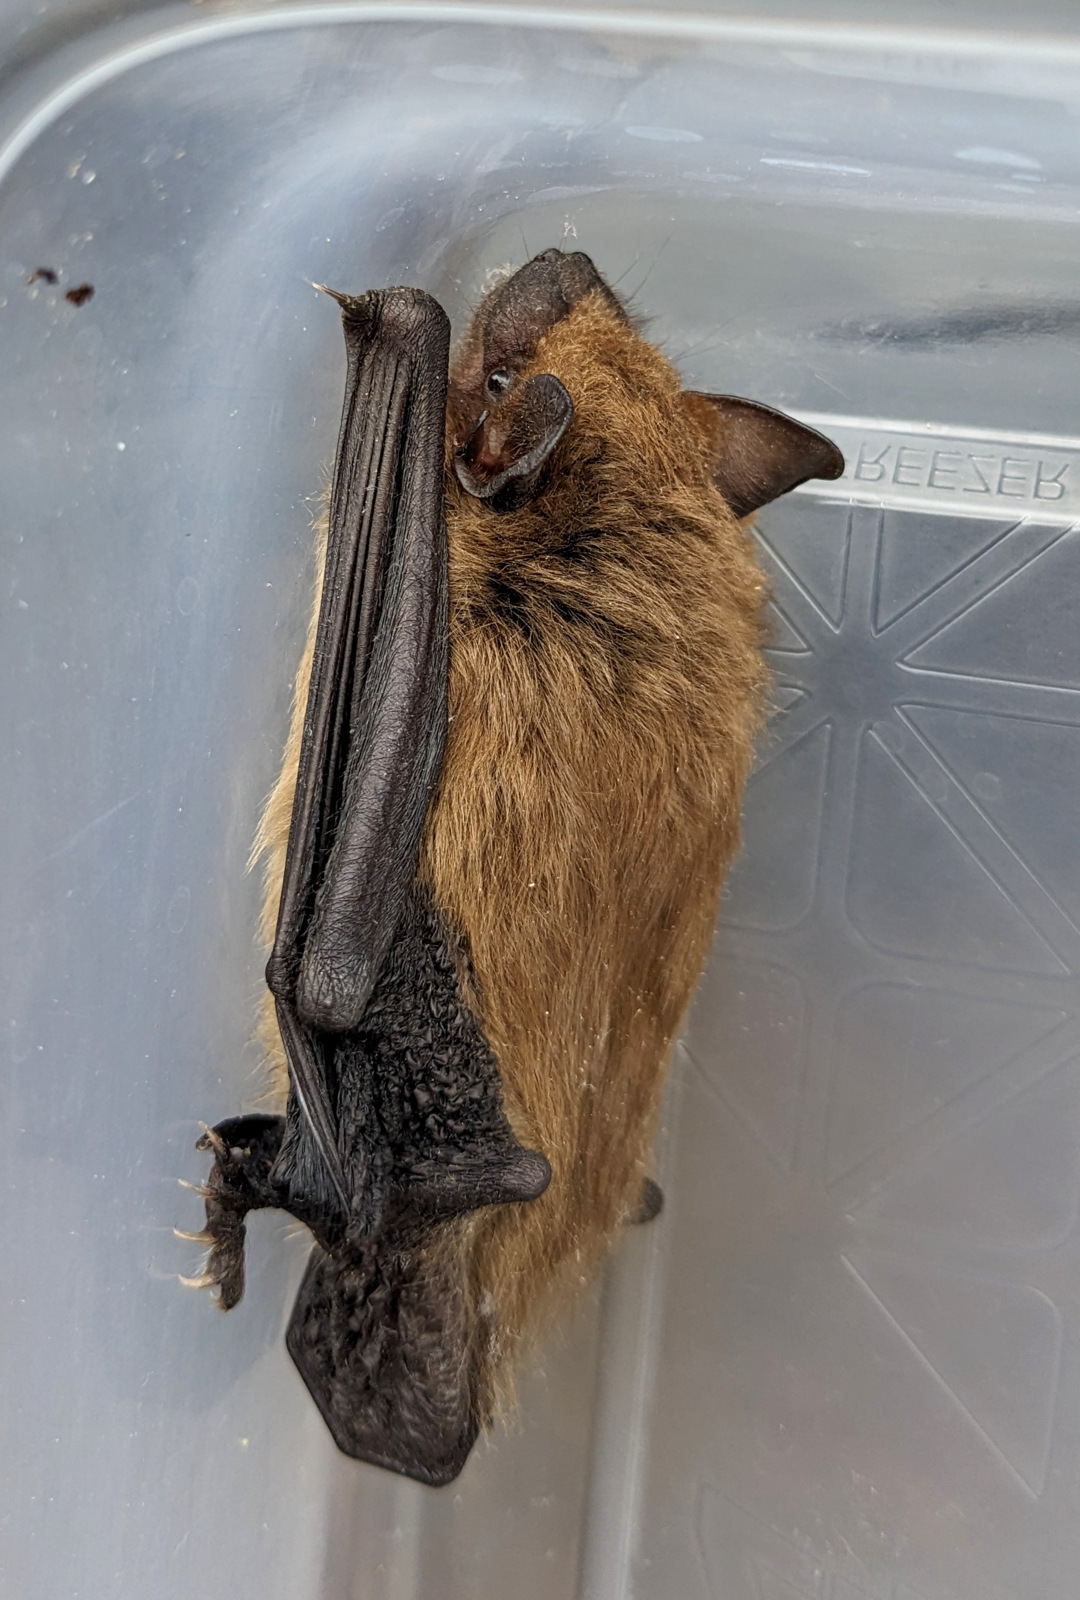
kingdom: Animalia
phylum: Chordata
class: Mammalia
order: Chiroptera
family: Vespertilionidae
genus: Eptesicus
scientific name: Eptesicus fuscus
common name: Big brown bat
